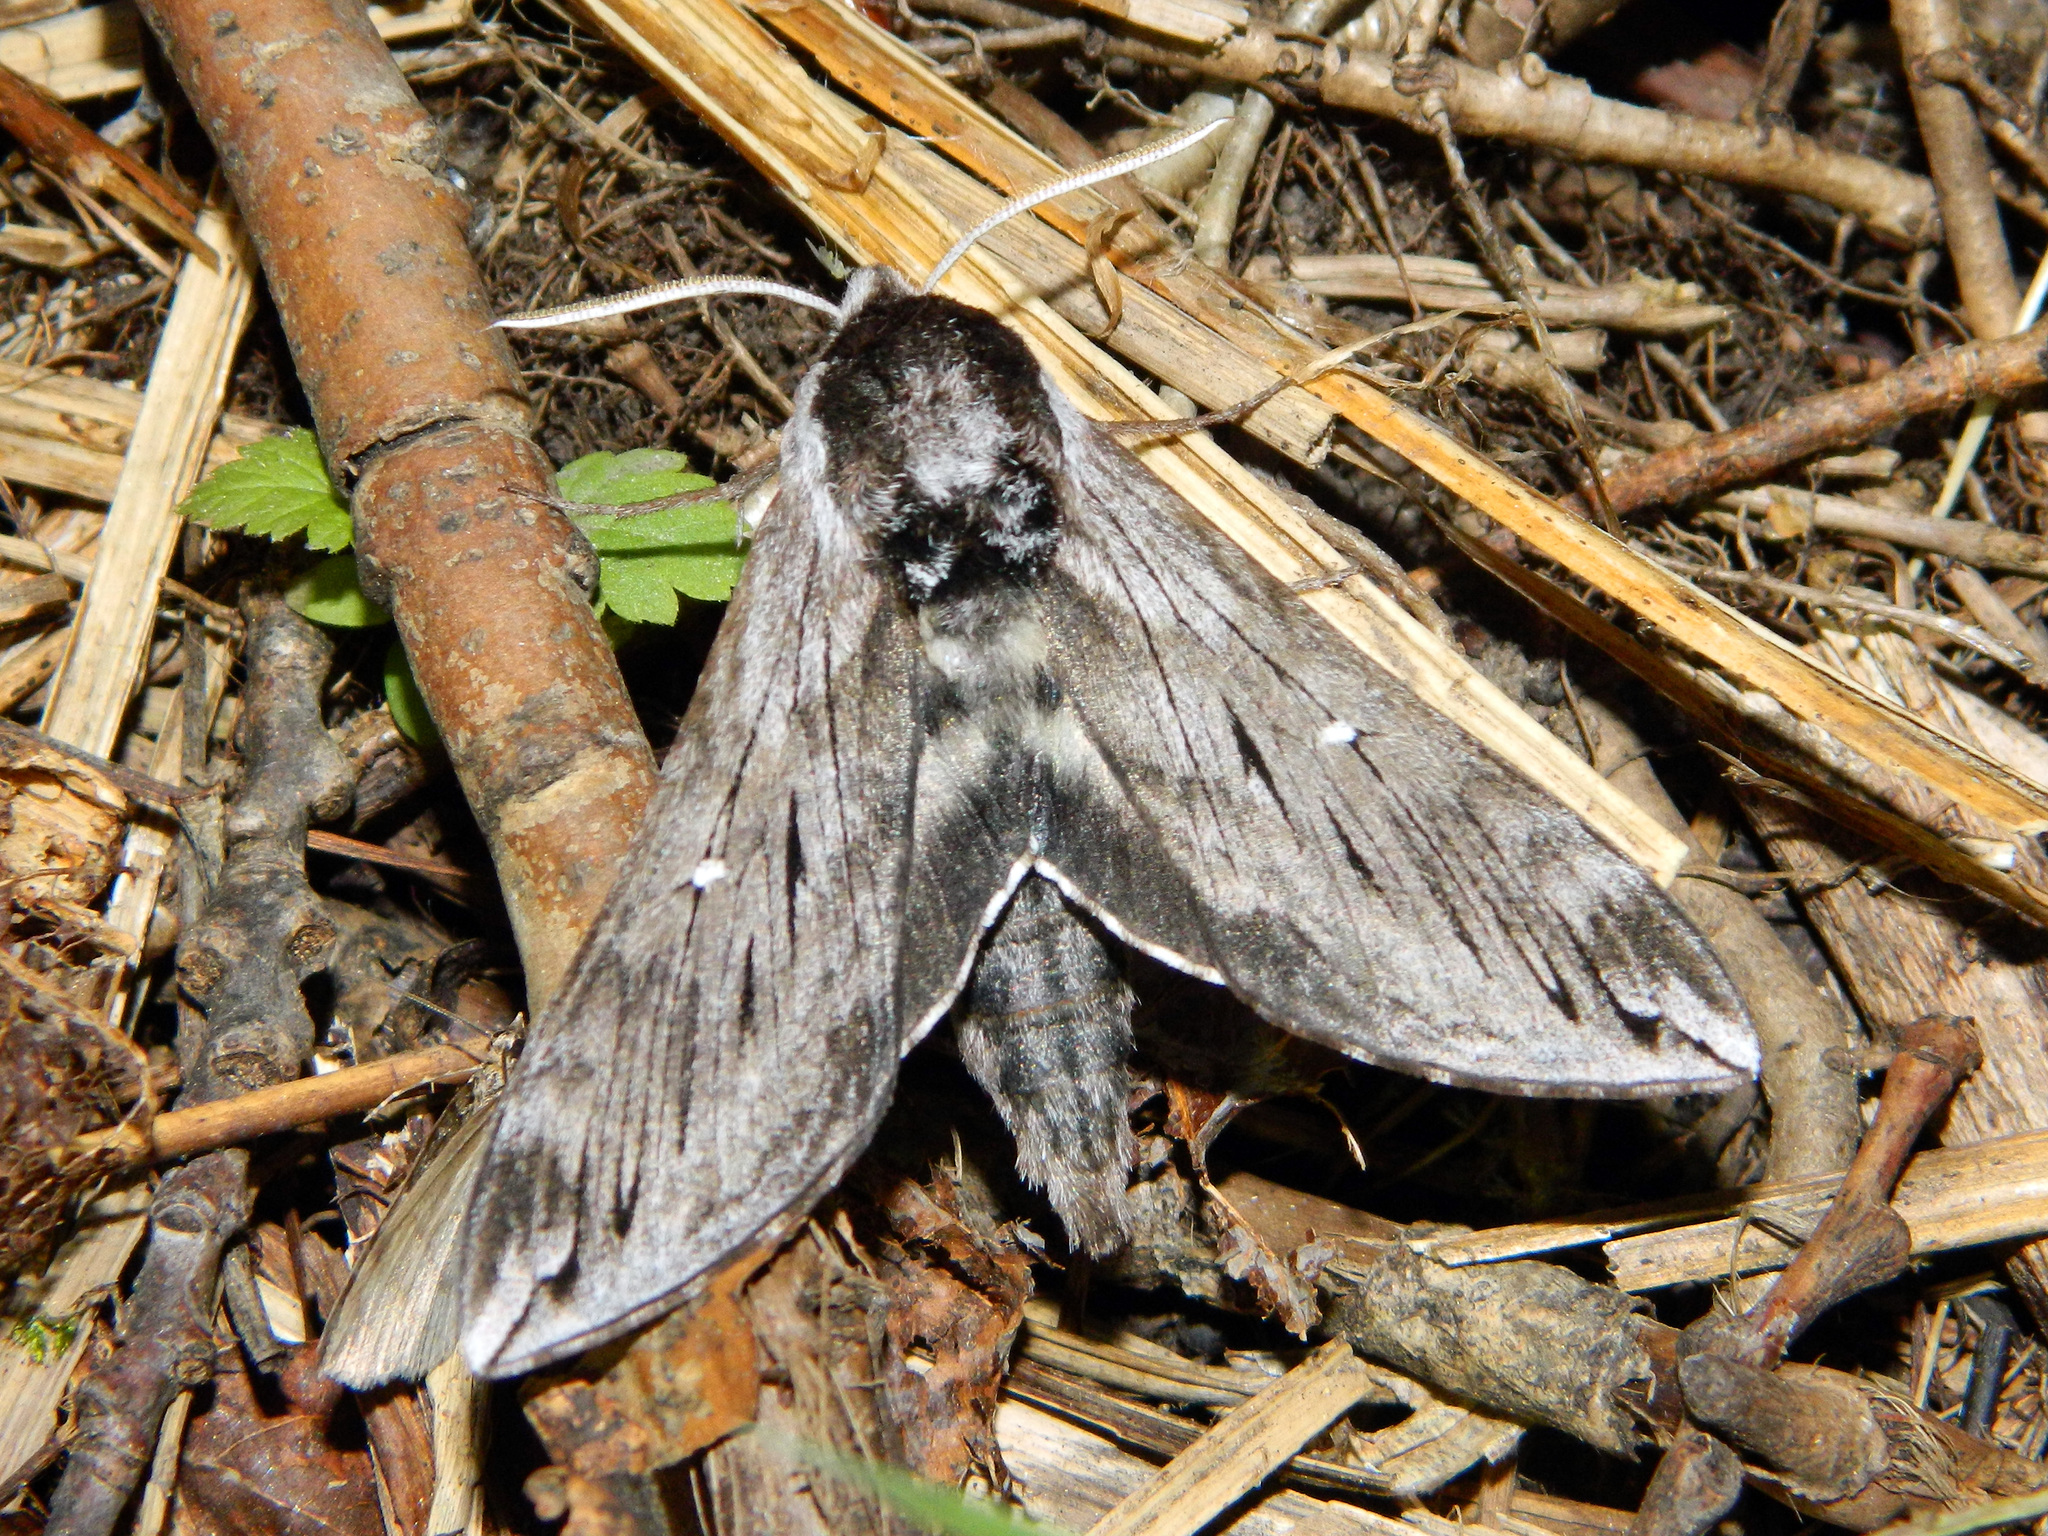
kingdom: Animalia
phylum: Arthropoda
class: Insecta
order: Lepidoptera
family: Sphingidae
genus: Sphinx
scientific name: Sphinx poecila
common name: Northern apple sphinx
